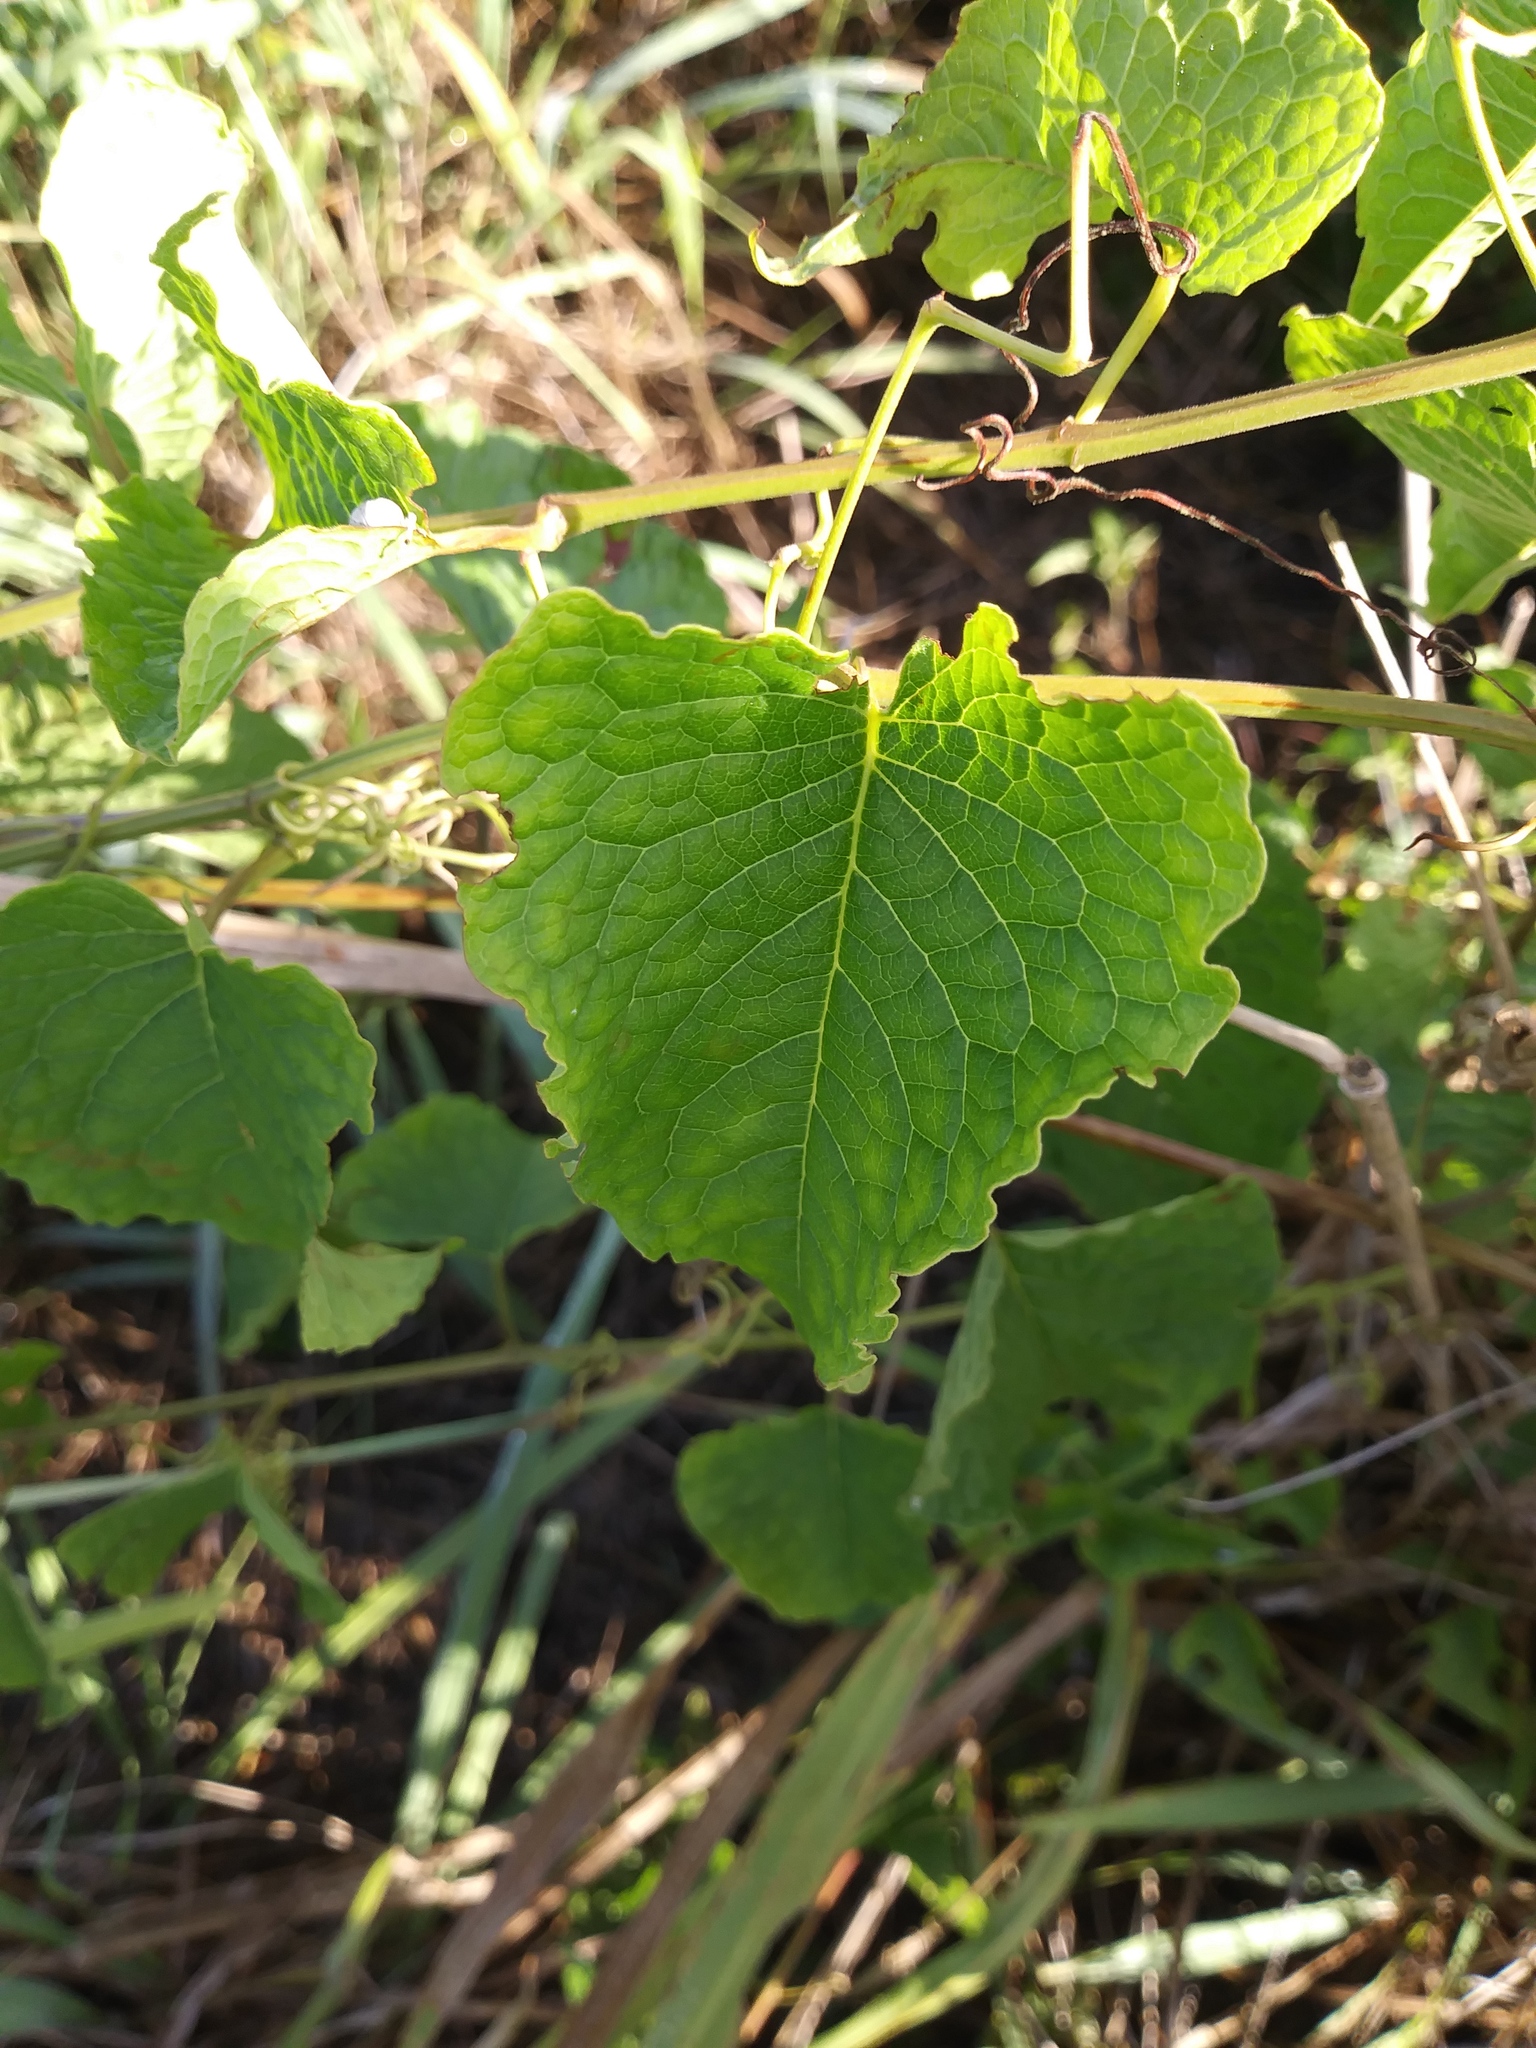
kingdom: Plantae
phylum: Tracheophyta
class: Magnoliopsida
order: Caryophyllales
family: Polygonaceae
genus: Antigonon
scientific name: Antigonon leptopus
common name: Coral vine
